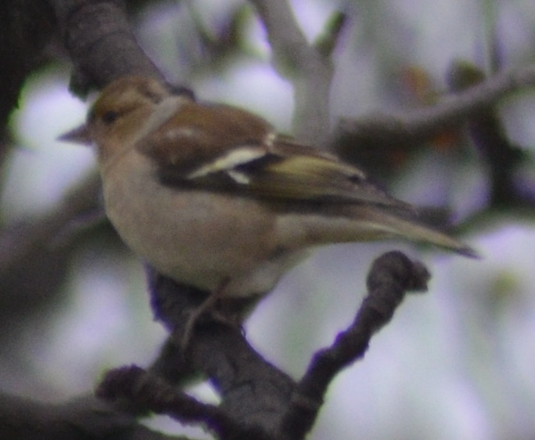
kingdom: Animalia
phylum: Chordata
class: Aves
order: Passeriformes
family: Fringillidae
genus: Fringilla
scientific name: Fringilla coelebs
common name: Common chaffinch
